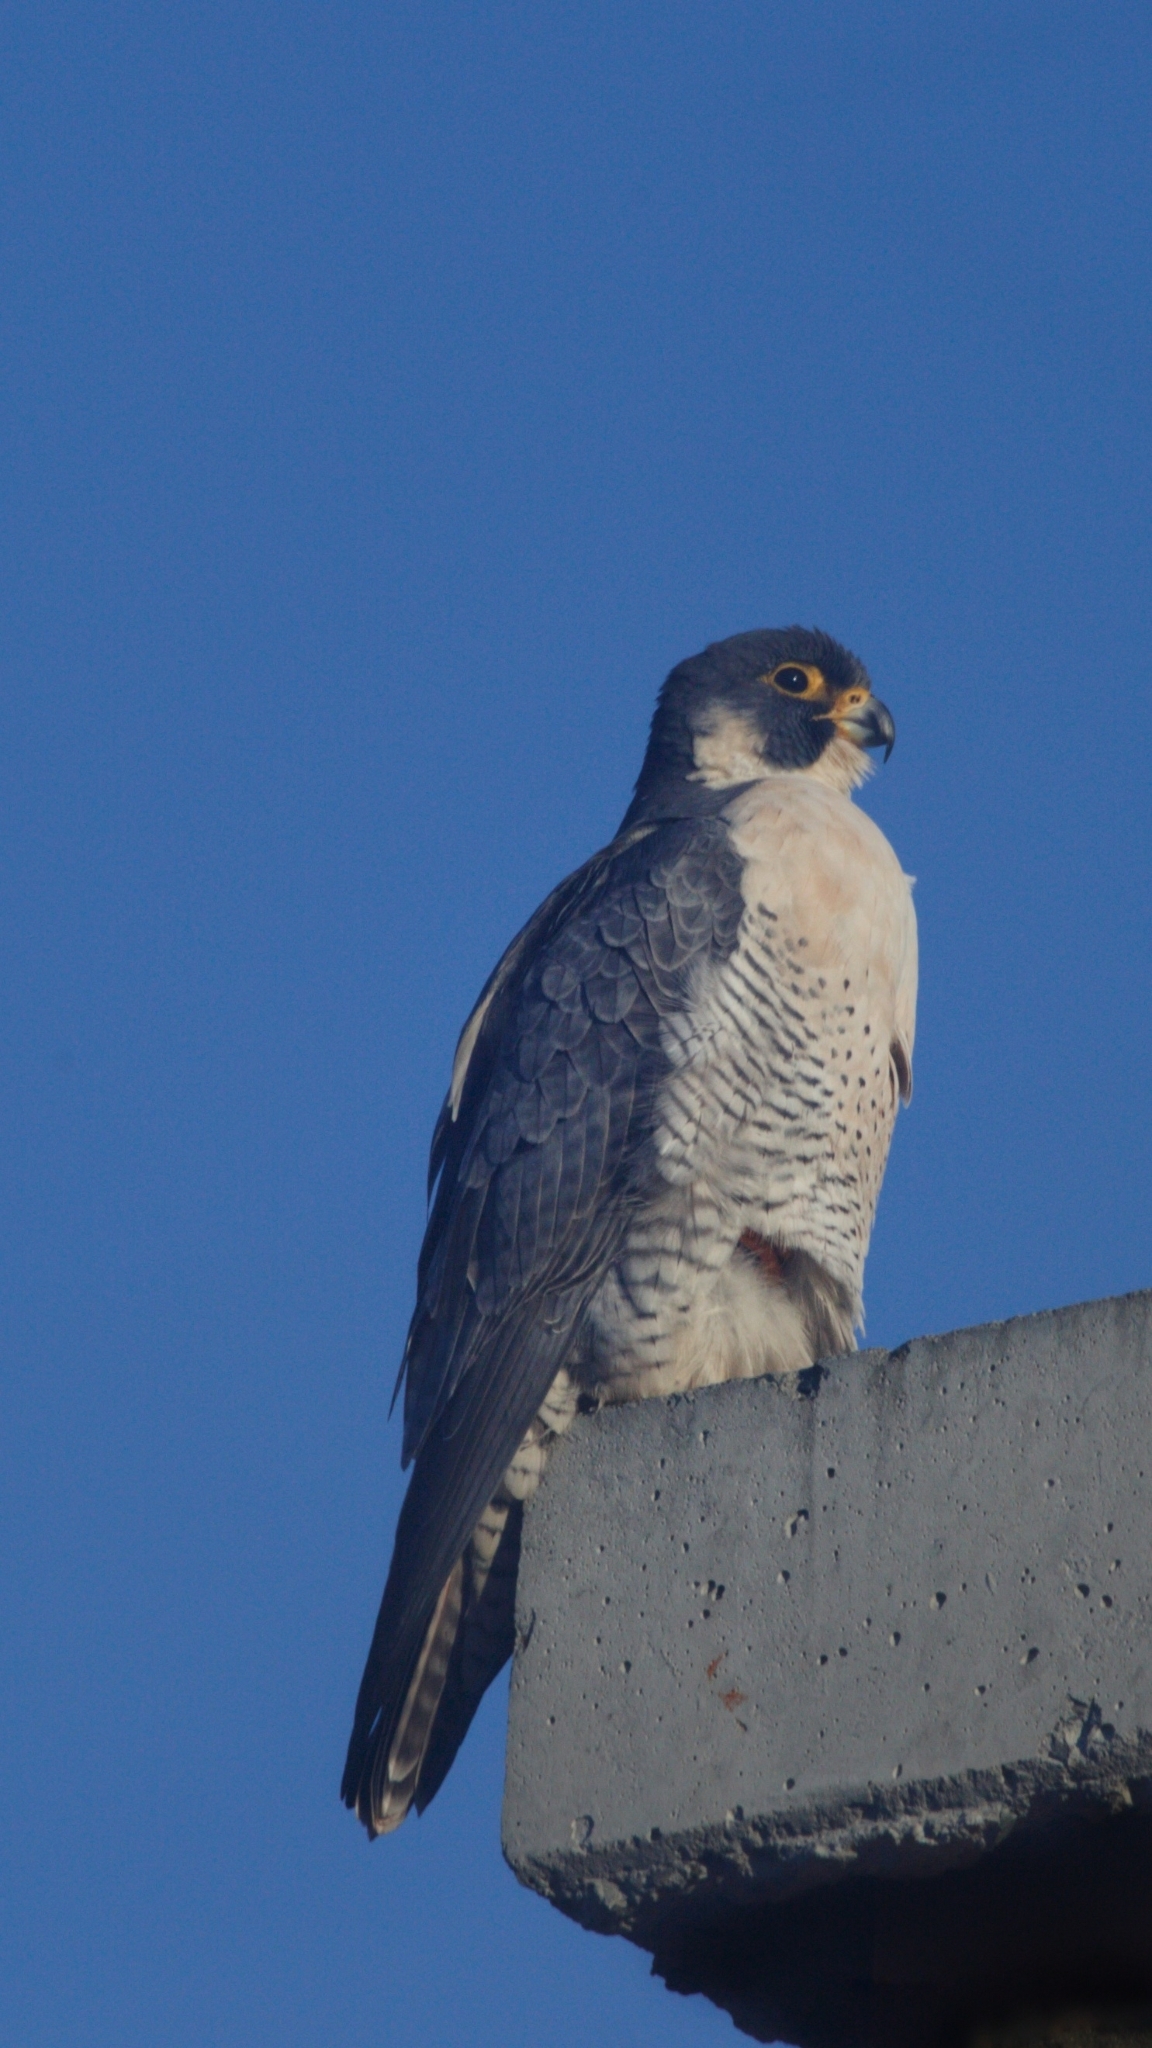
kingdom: Animalia
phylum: Chordata
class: Aves
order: Falconiformes
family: Falconidae
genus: Falco
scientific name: Falco peregrinus
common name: Peregrine falcon
